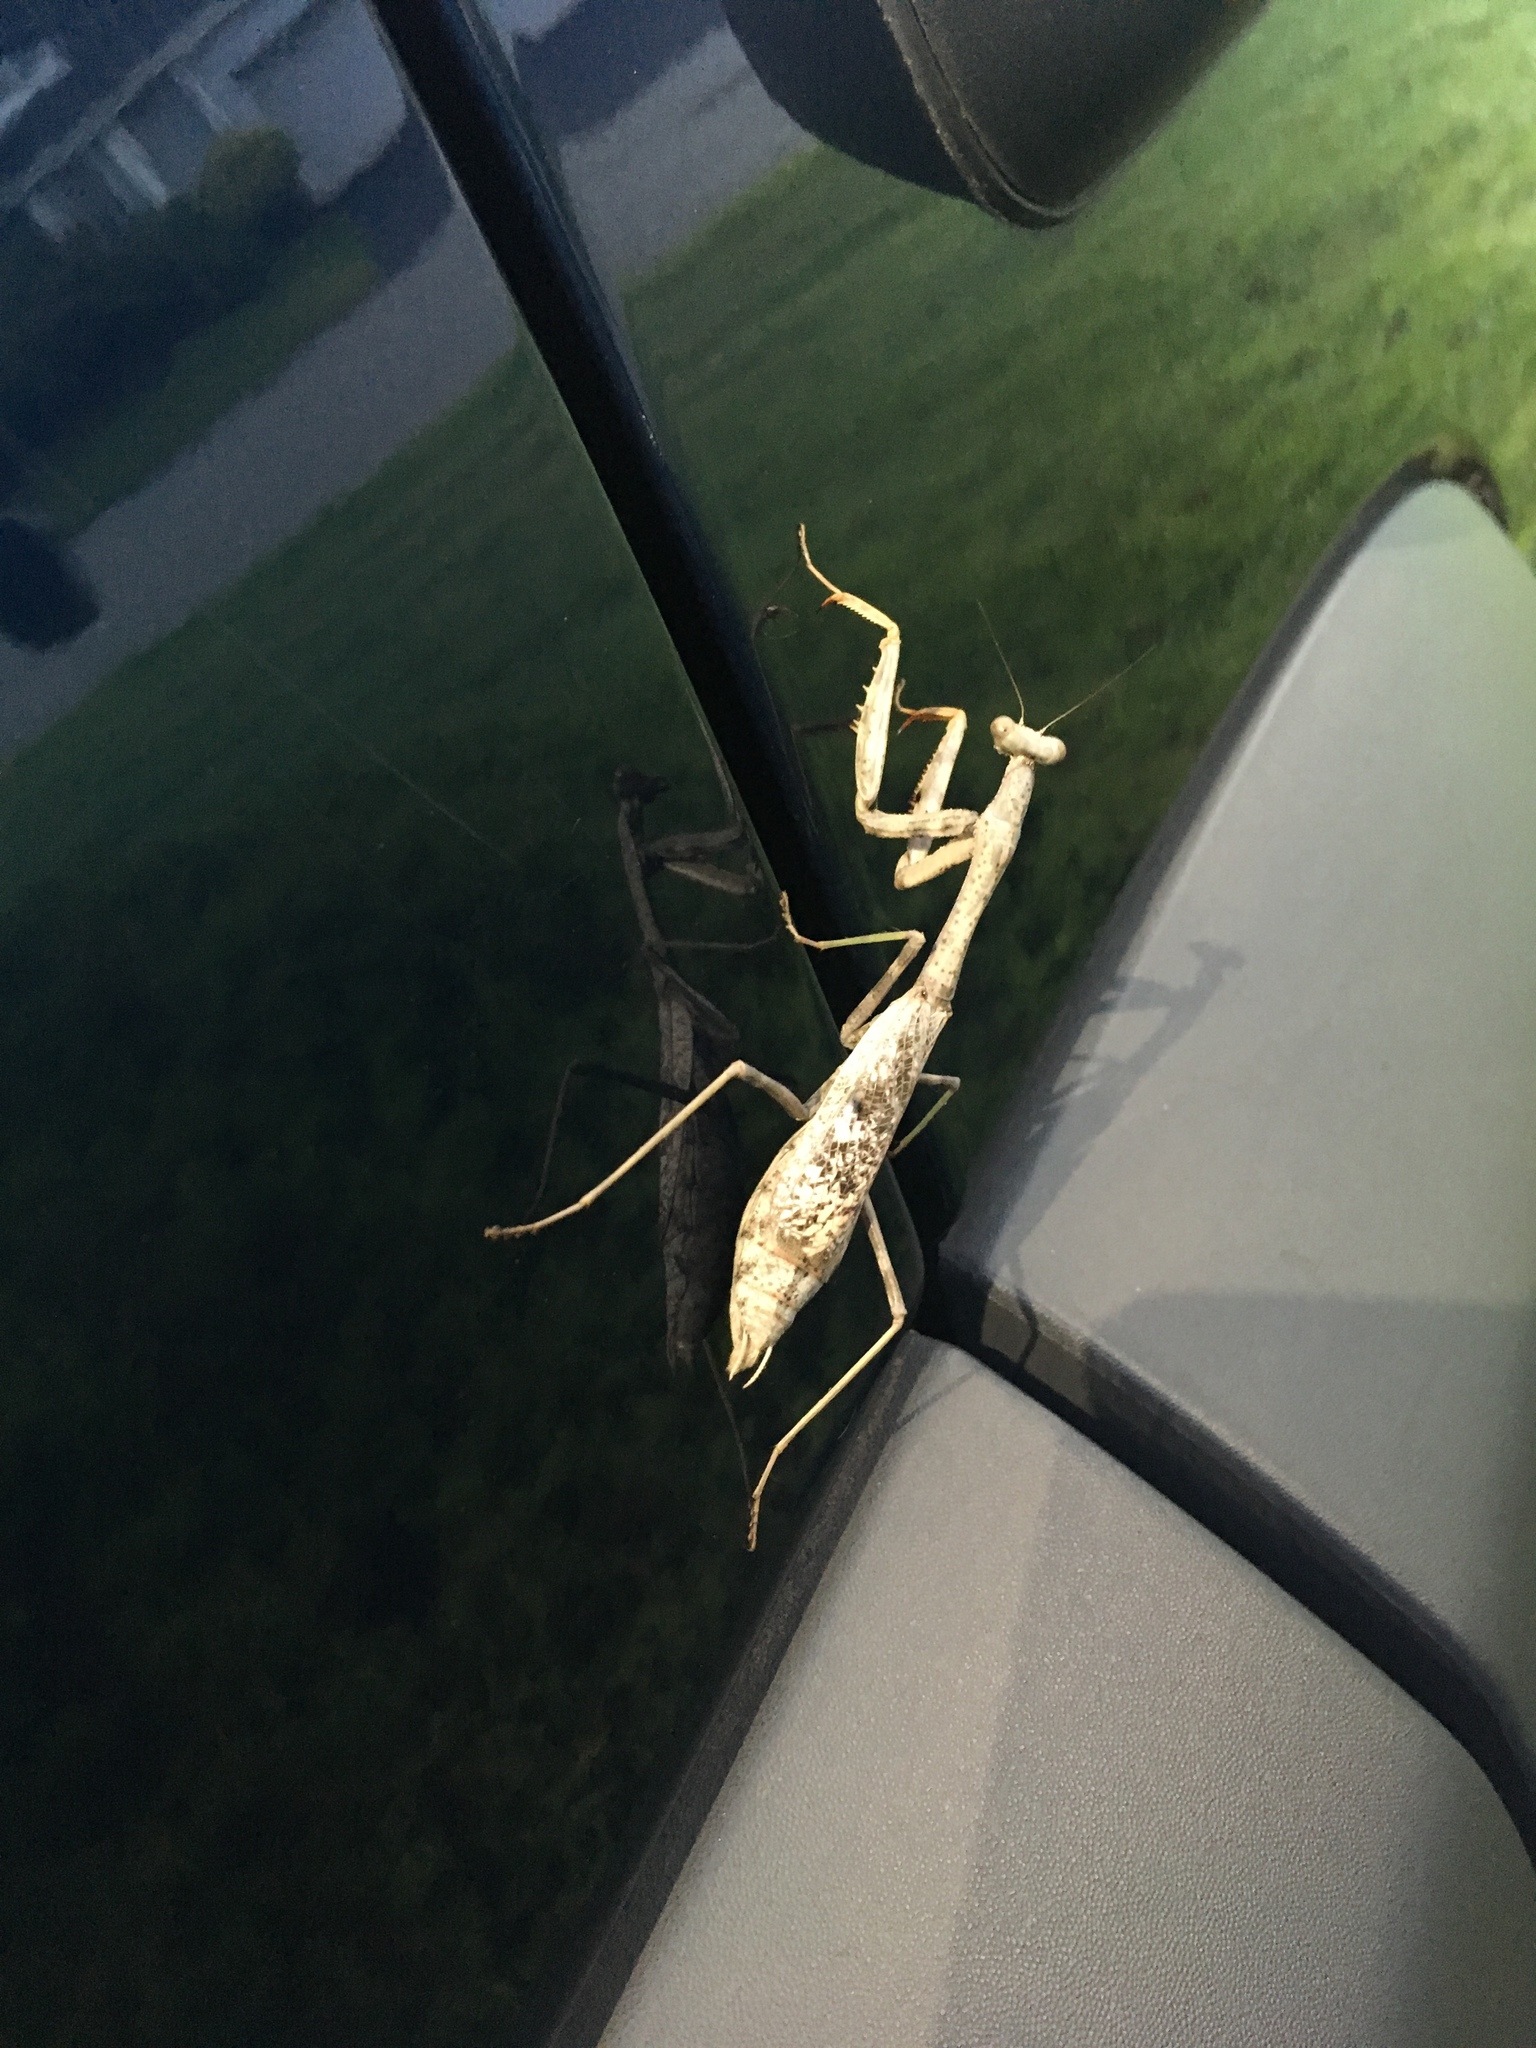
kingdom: Animalia
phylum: Arthropoda
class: Insecta
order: Mantodea
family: Mantidae
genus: Stagmomantis
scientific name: Stagmomantis carolina
